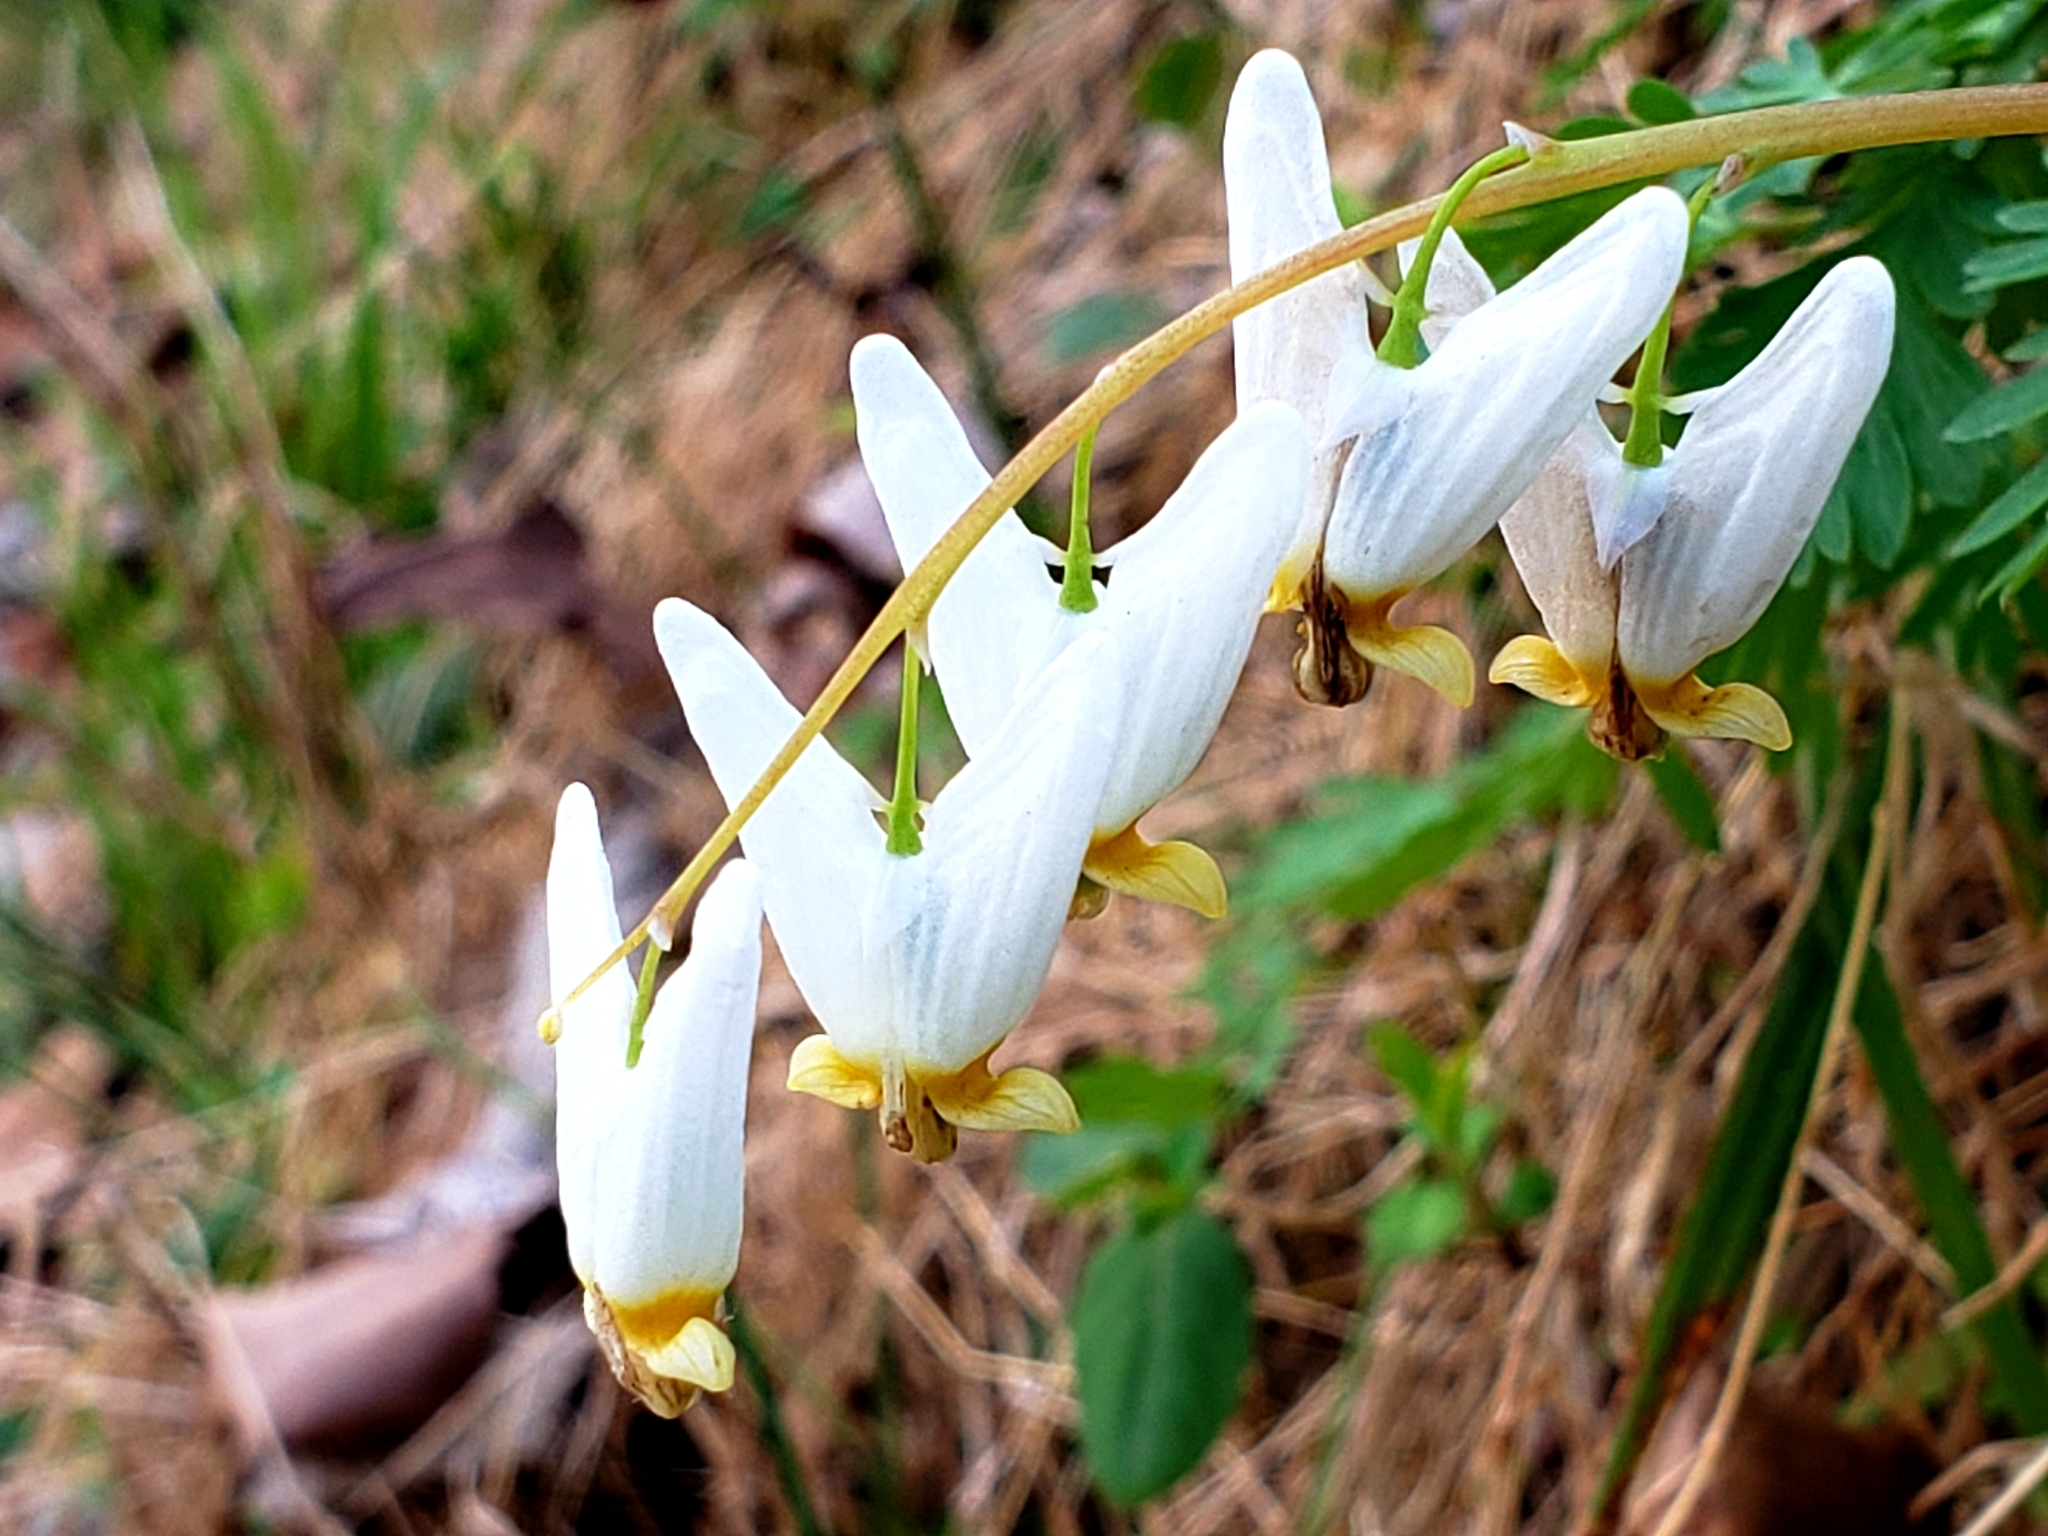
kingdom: Plantae
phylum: Tracheophyta
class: Magnoliopsida
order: Ranunculales
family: Papaveraceae
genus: Dicentra
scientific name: Dicentra cucullaria
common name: Dutchman's breeches
